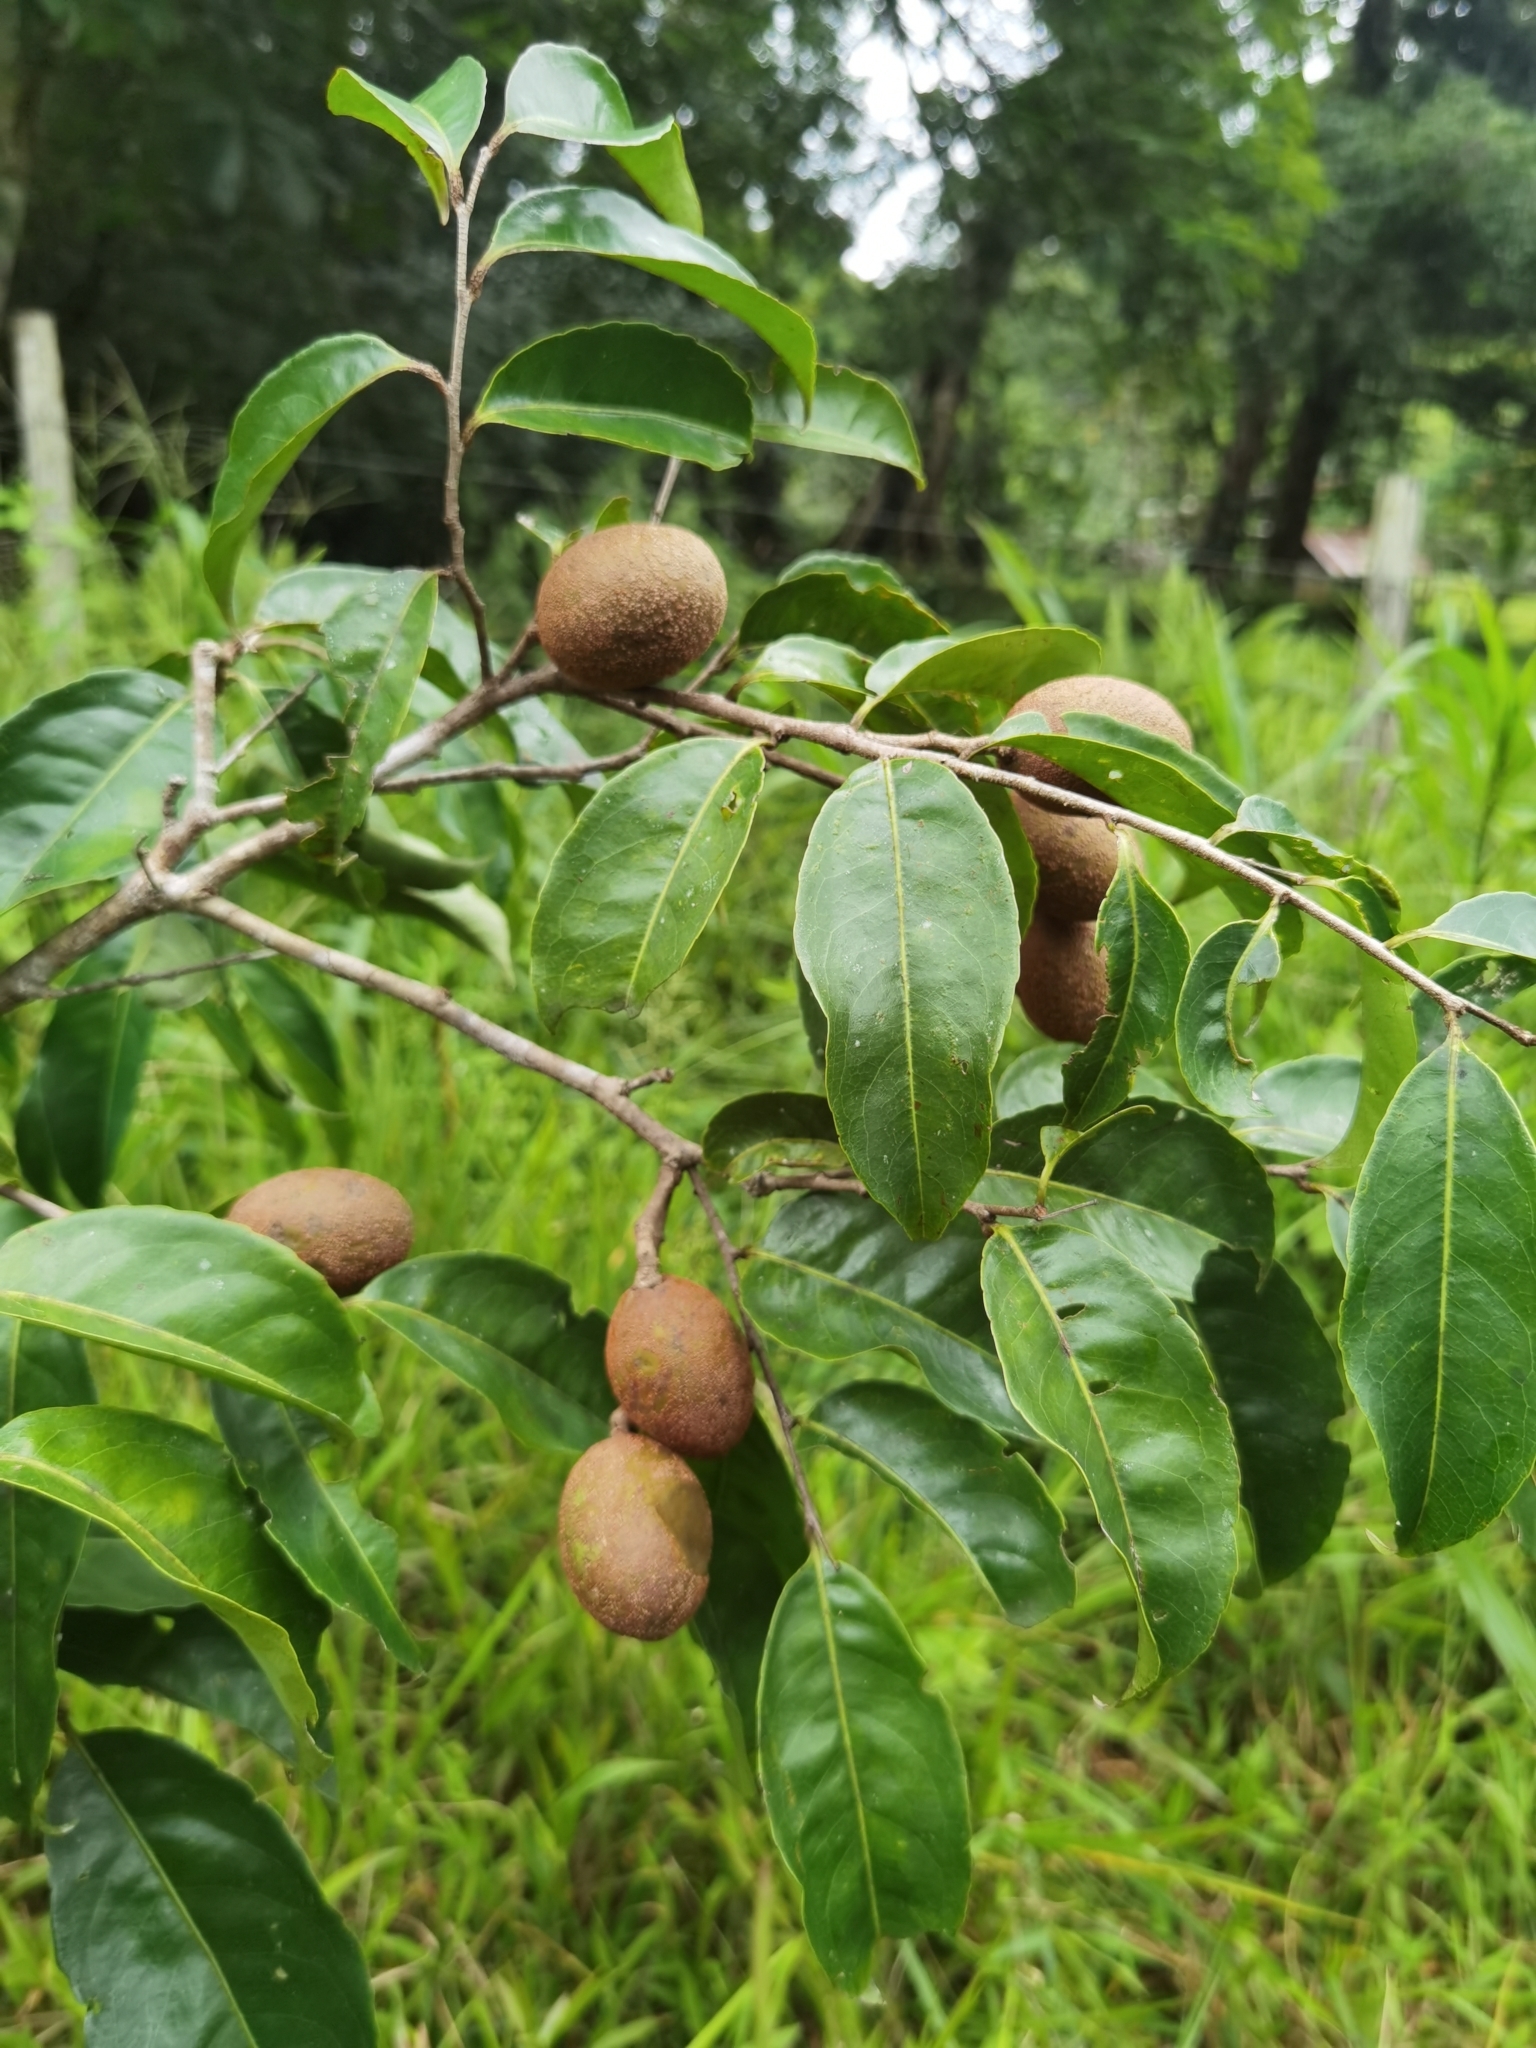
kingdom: Plantae
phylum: Tracheophyta
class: Magnoliopsida
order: Malpighiales
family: Humiriaceae
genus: Sacoglottis
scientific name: Sacoglottis trichogyna
